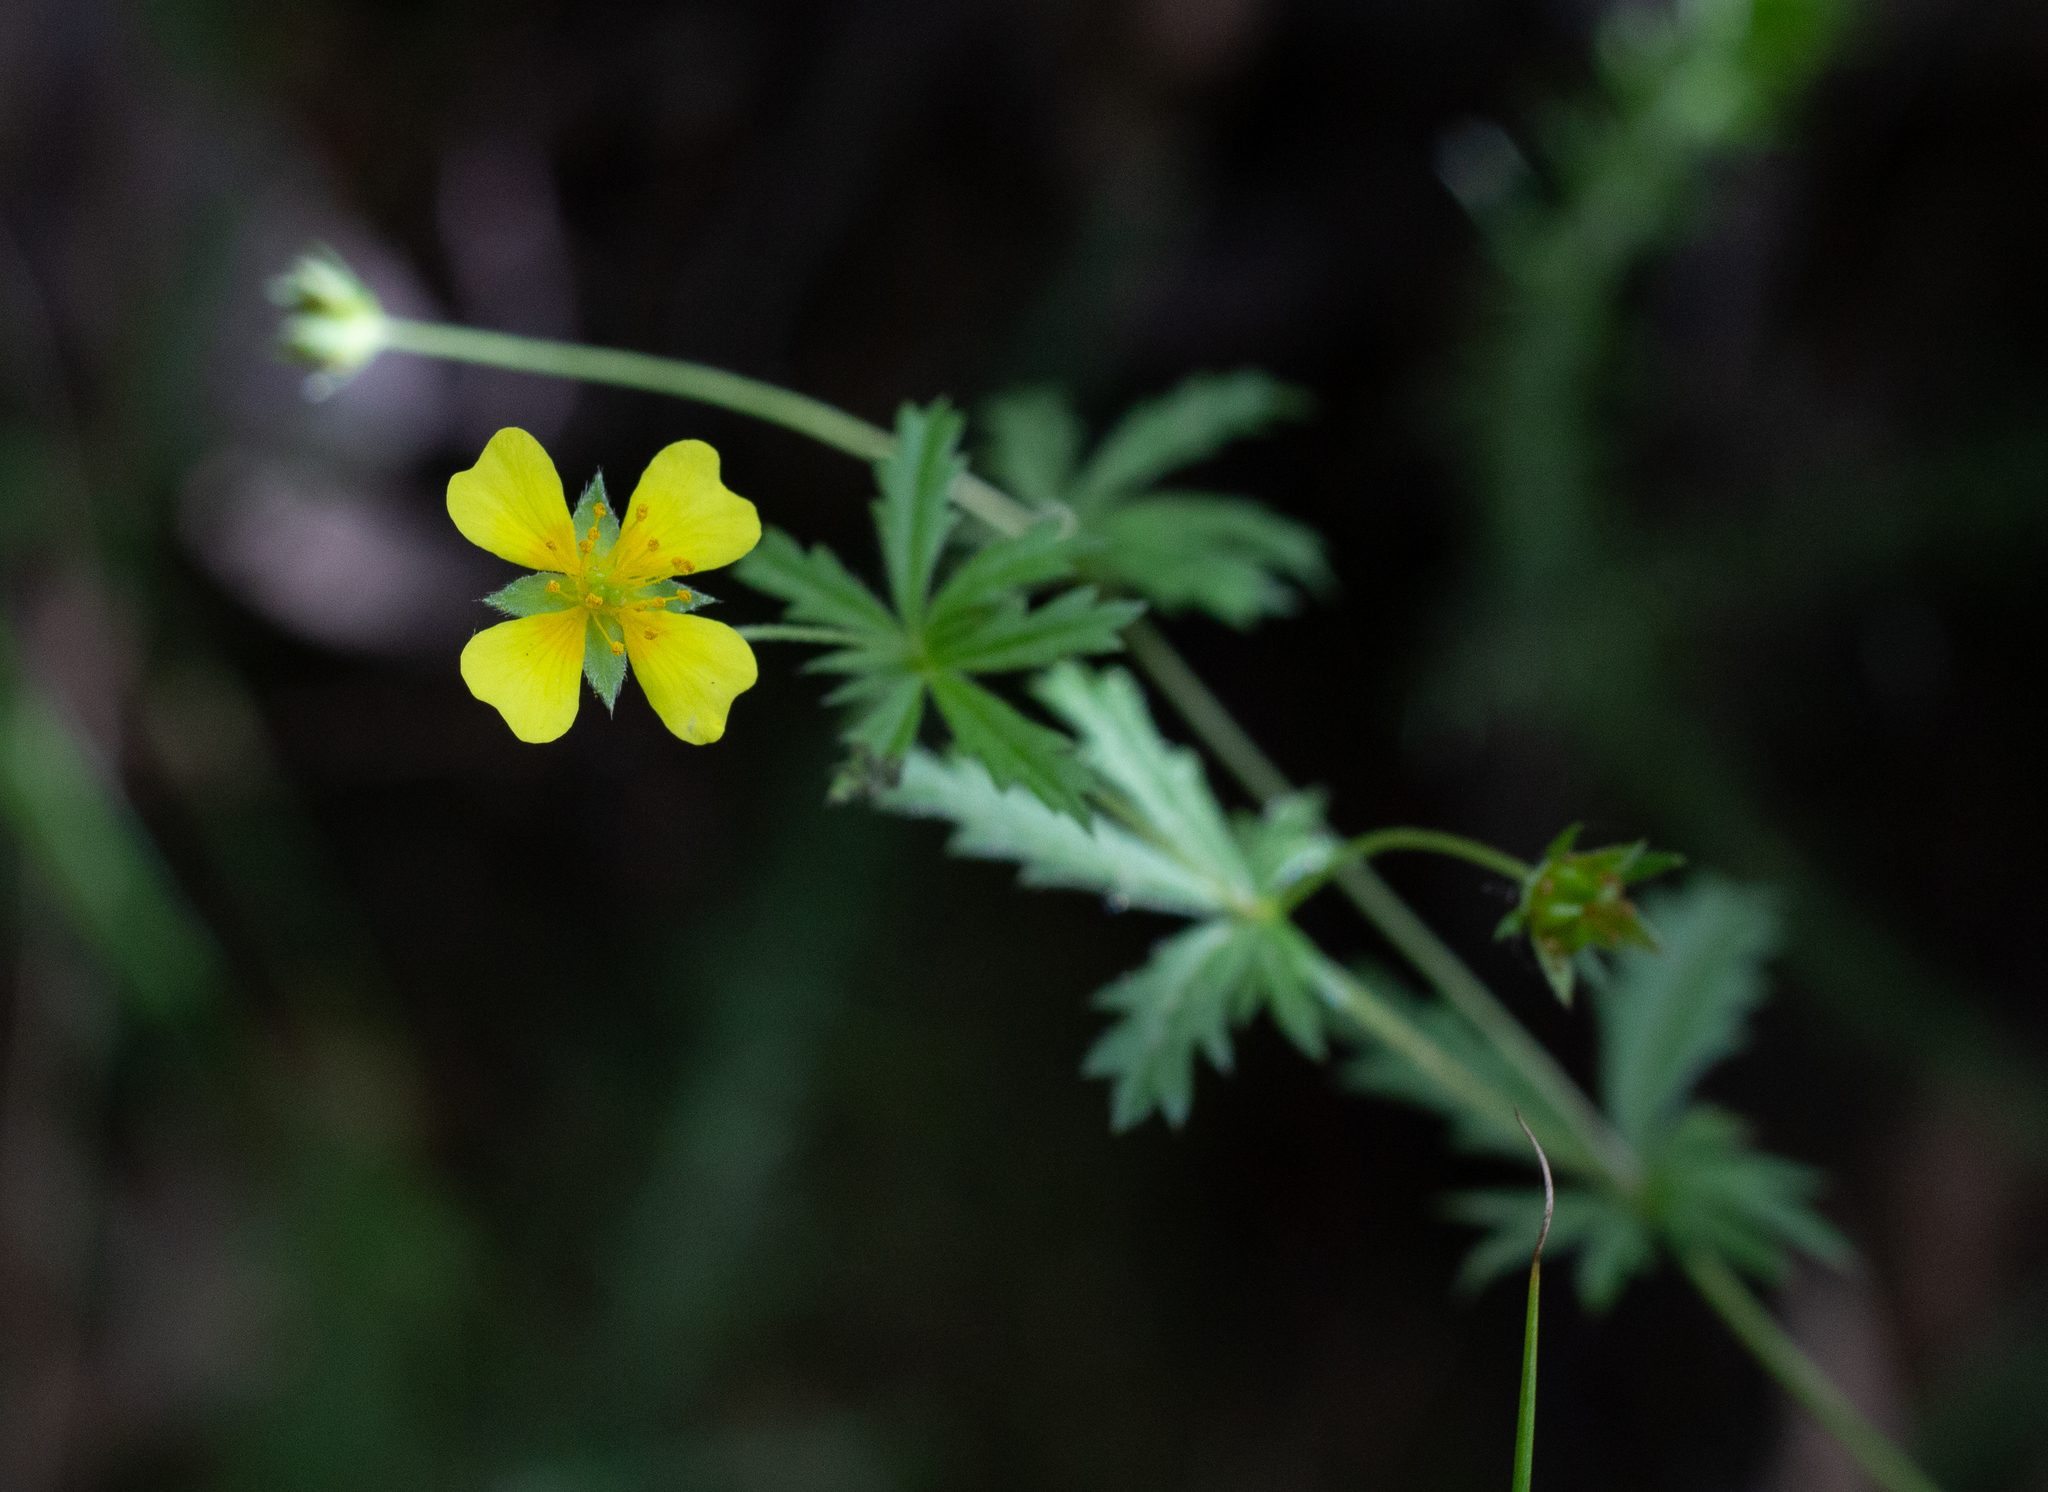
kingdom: Plantae
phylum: Tracheophyta
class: Magnoliopsida
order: Rosales
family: Rosaceae
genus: Potentilla
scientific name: Potentilla erecta
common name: Tormentil
